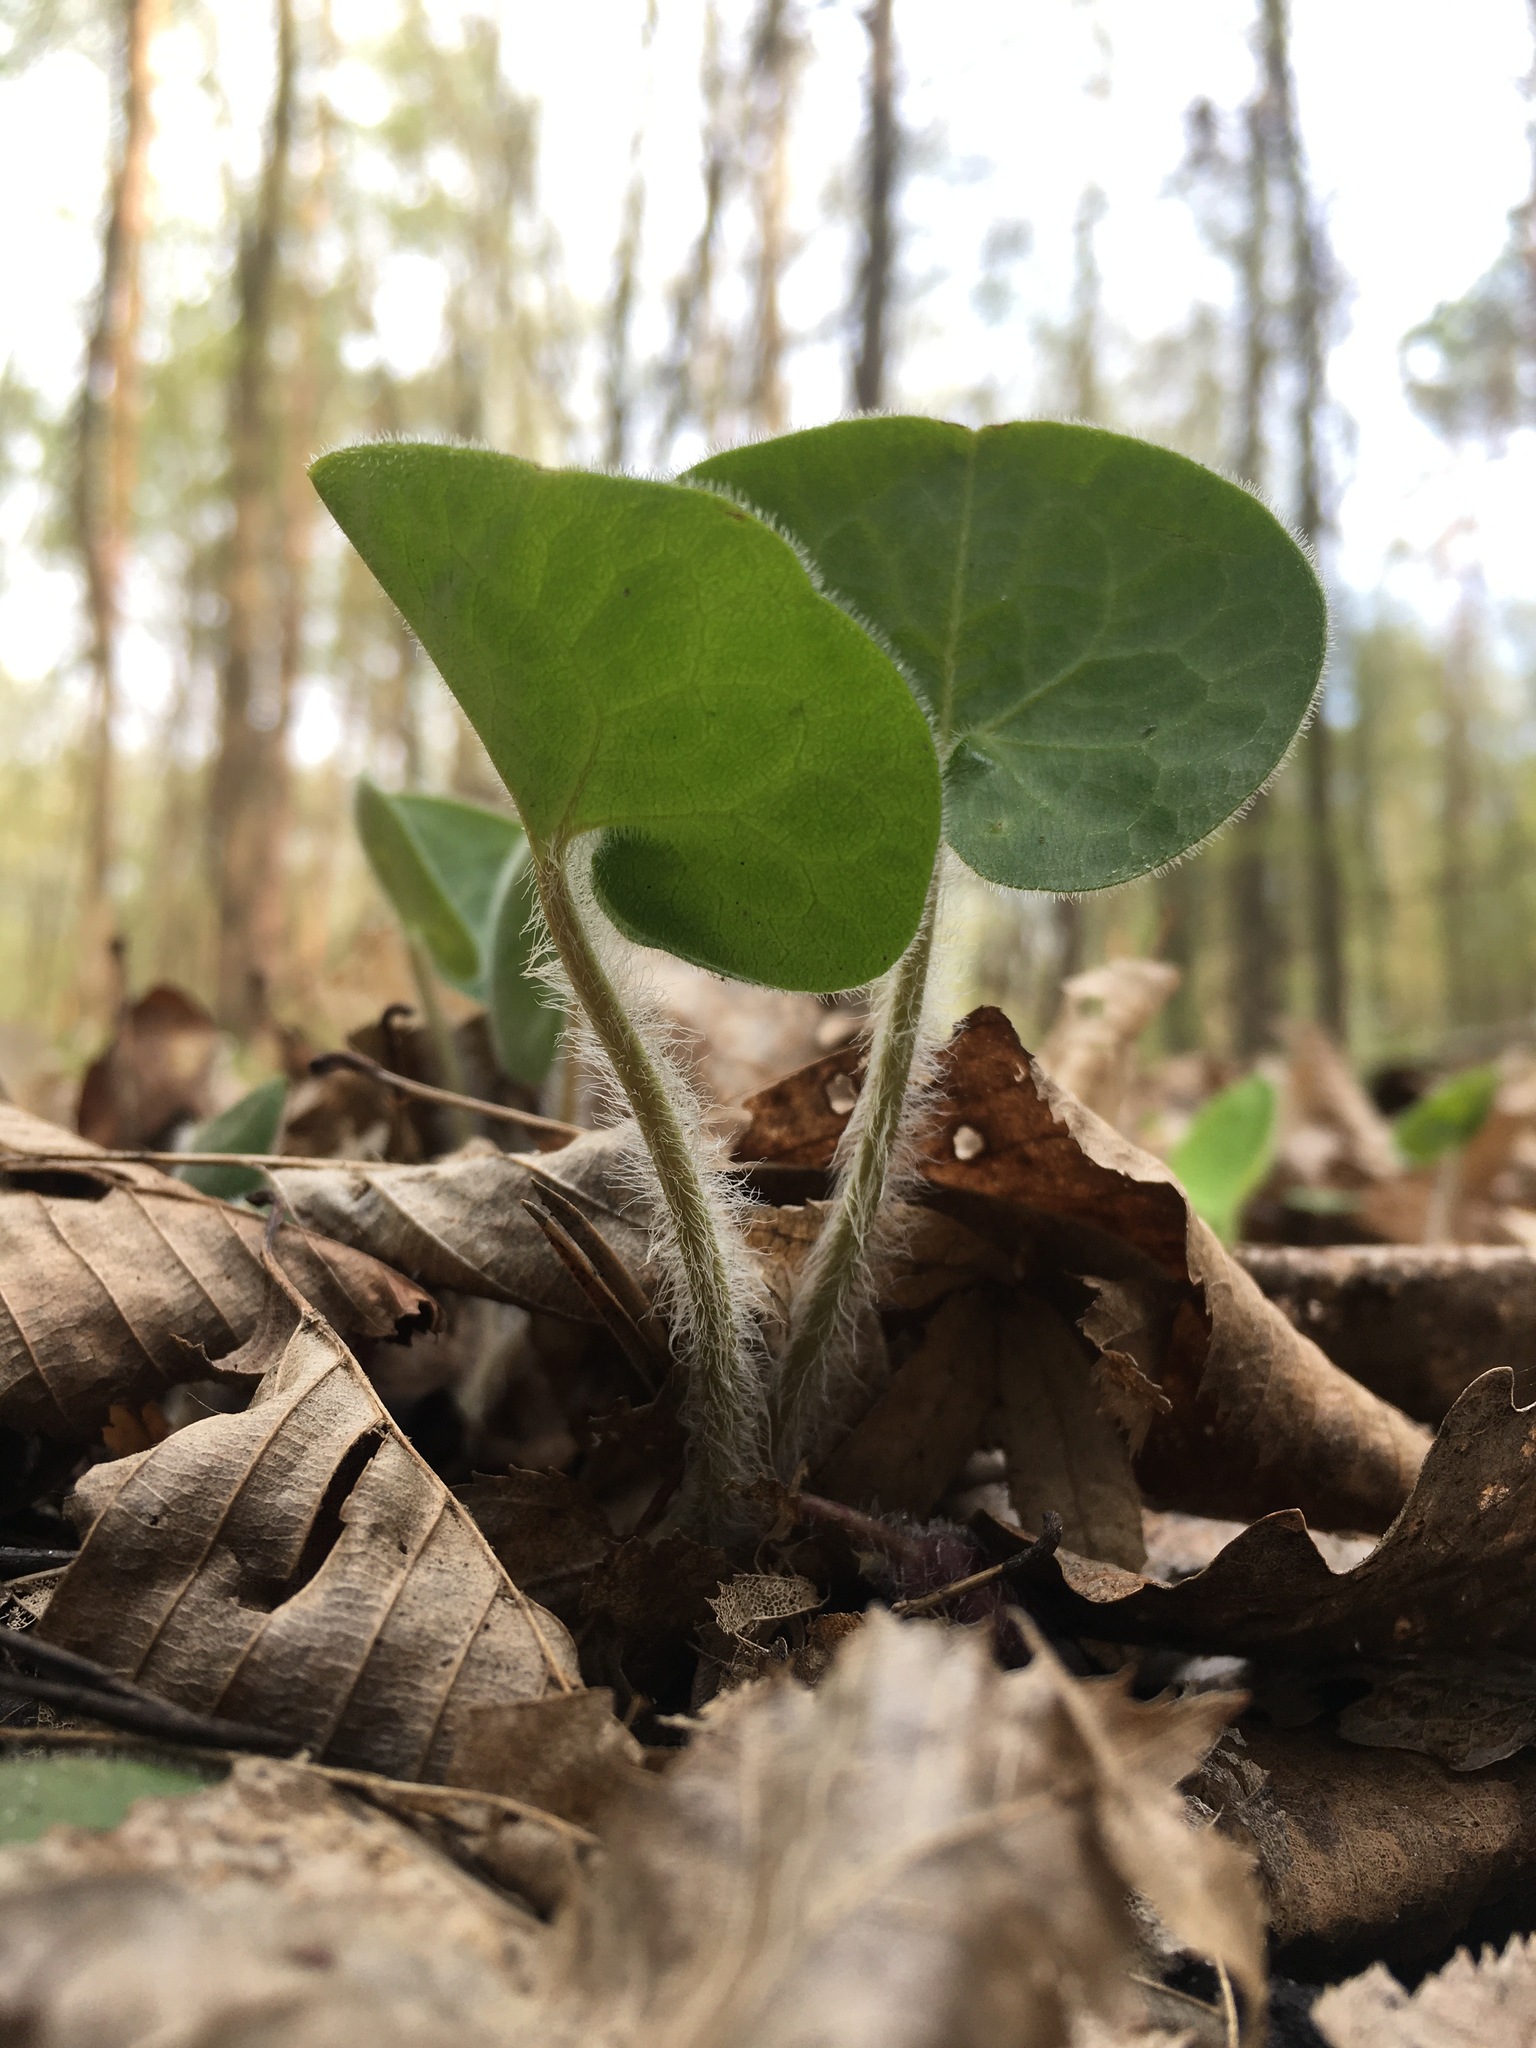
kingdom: Plantae
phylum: Tracheophyta
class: Magnoliopsida
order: Piperales
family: Aristolochiaceae
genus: Asarum
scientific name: Asarum europaeum
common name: Asarabacca
